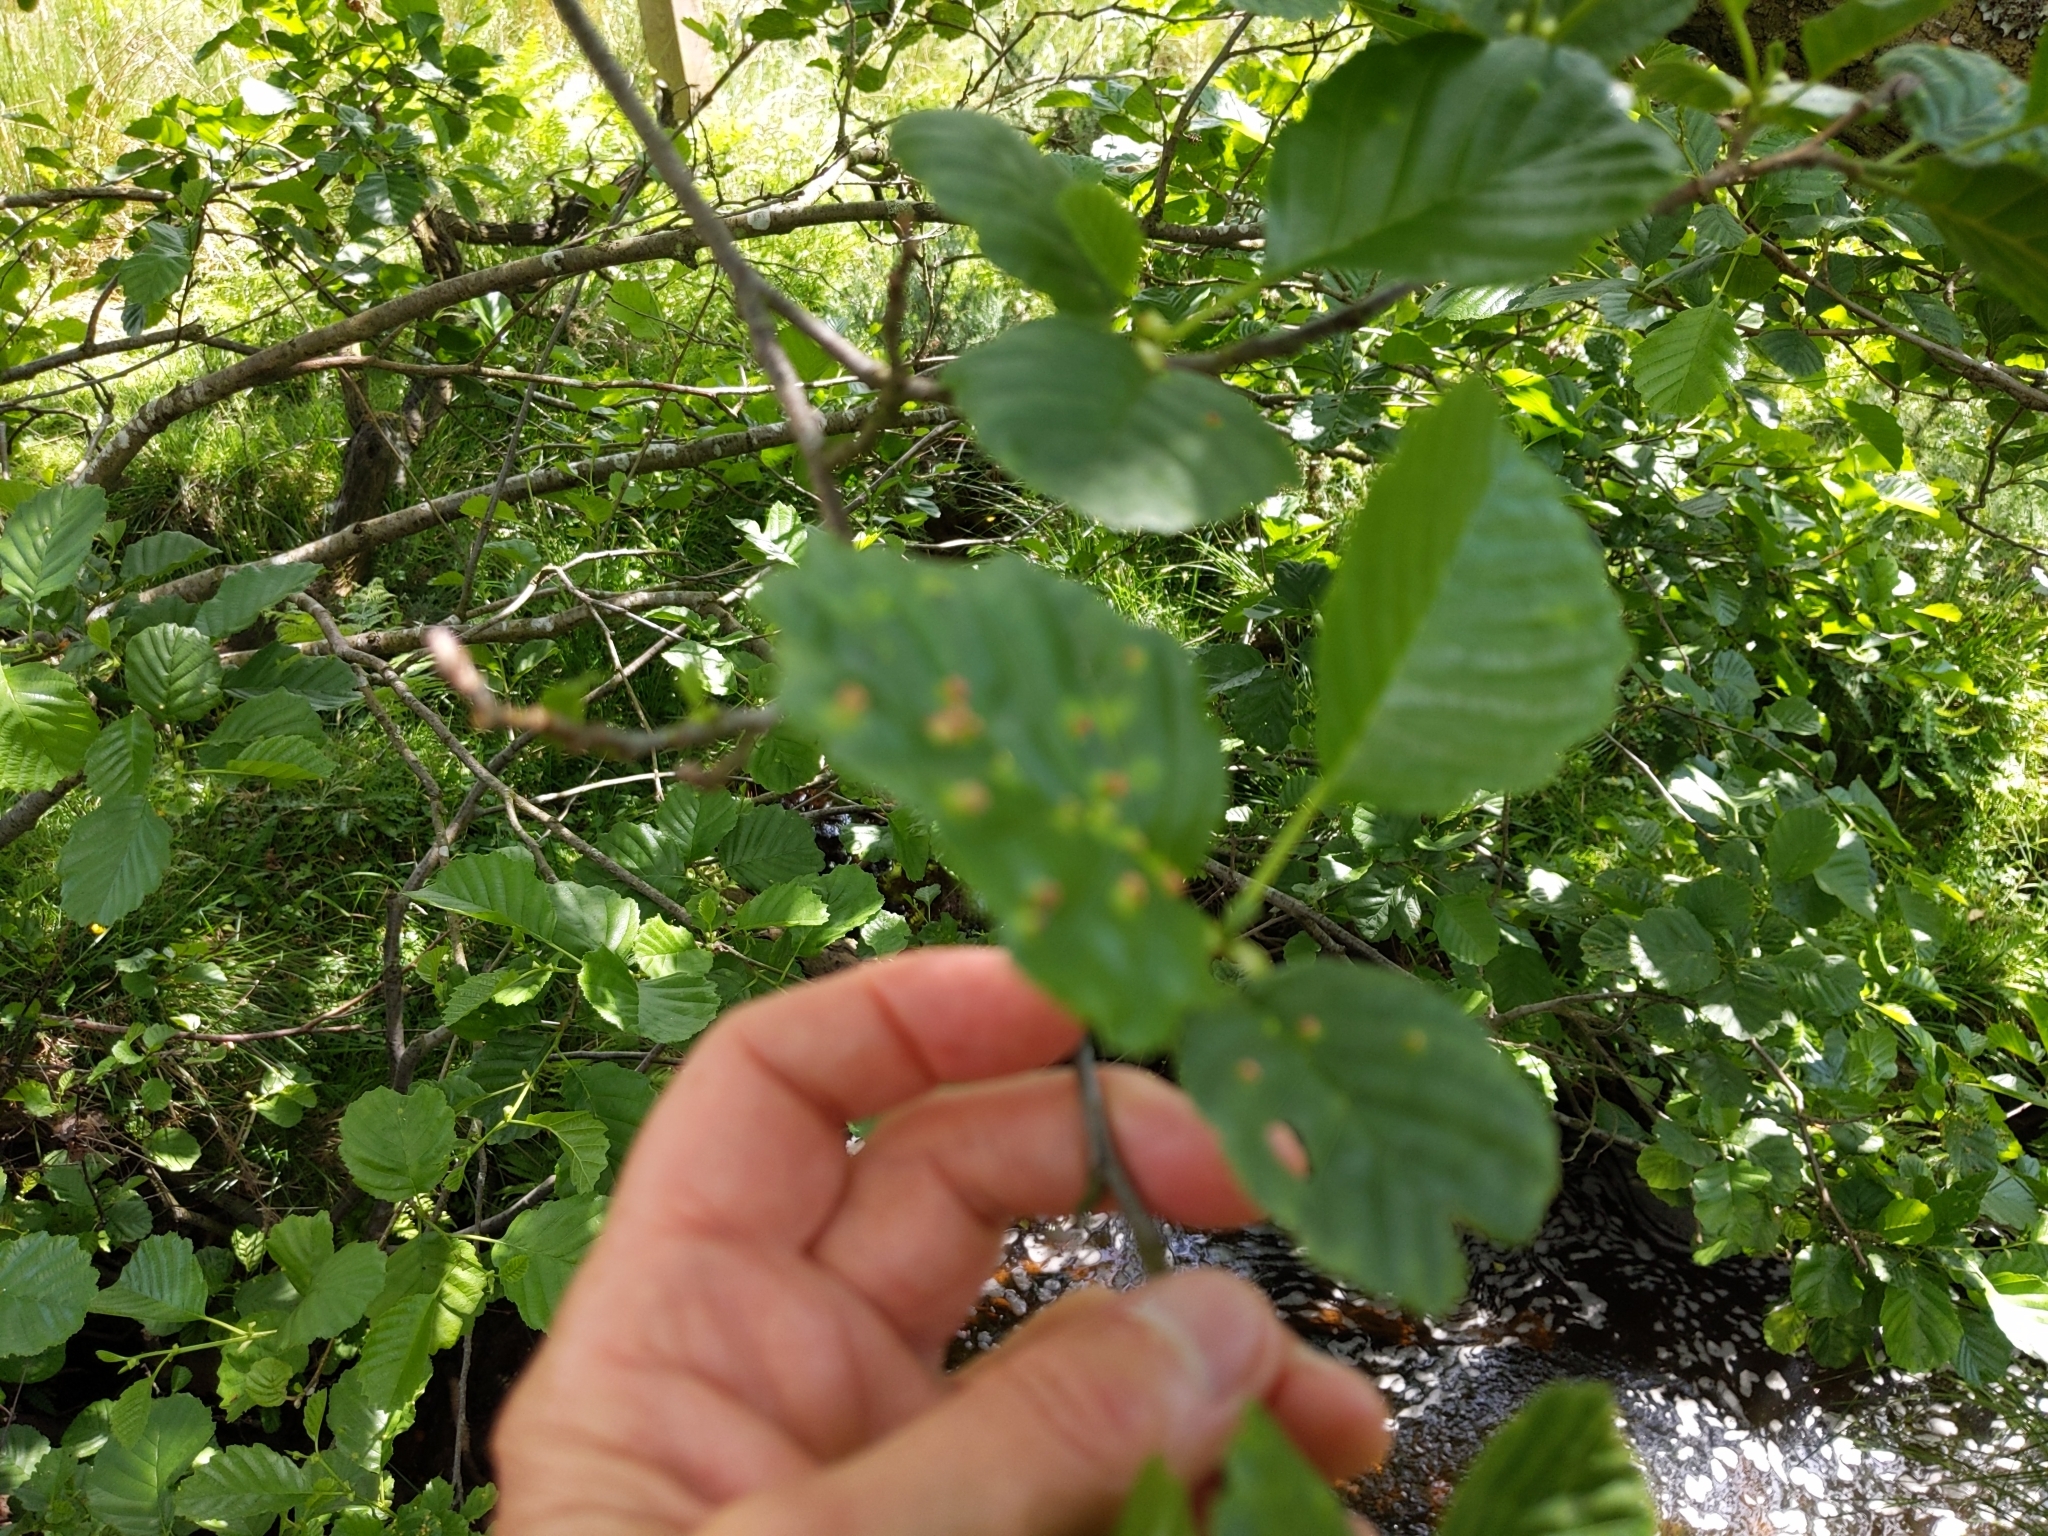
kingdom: Animalia
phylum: Arthropoda
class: Arachnida
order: Trombidiformes
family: Eriophyidae
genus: Eriophyes
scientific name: Eriophyes laevis
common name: Alder leaf gall mite
